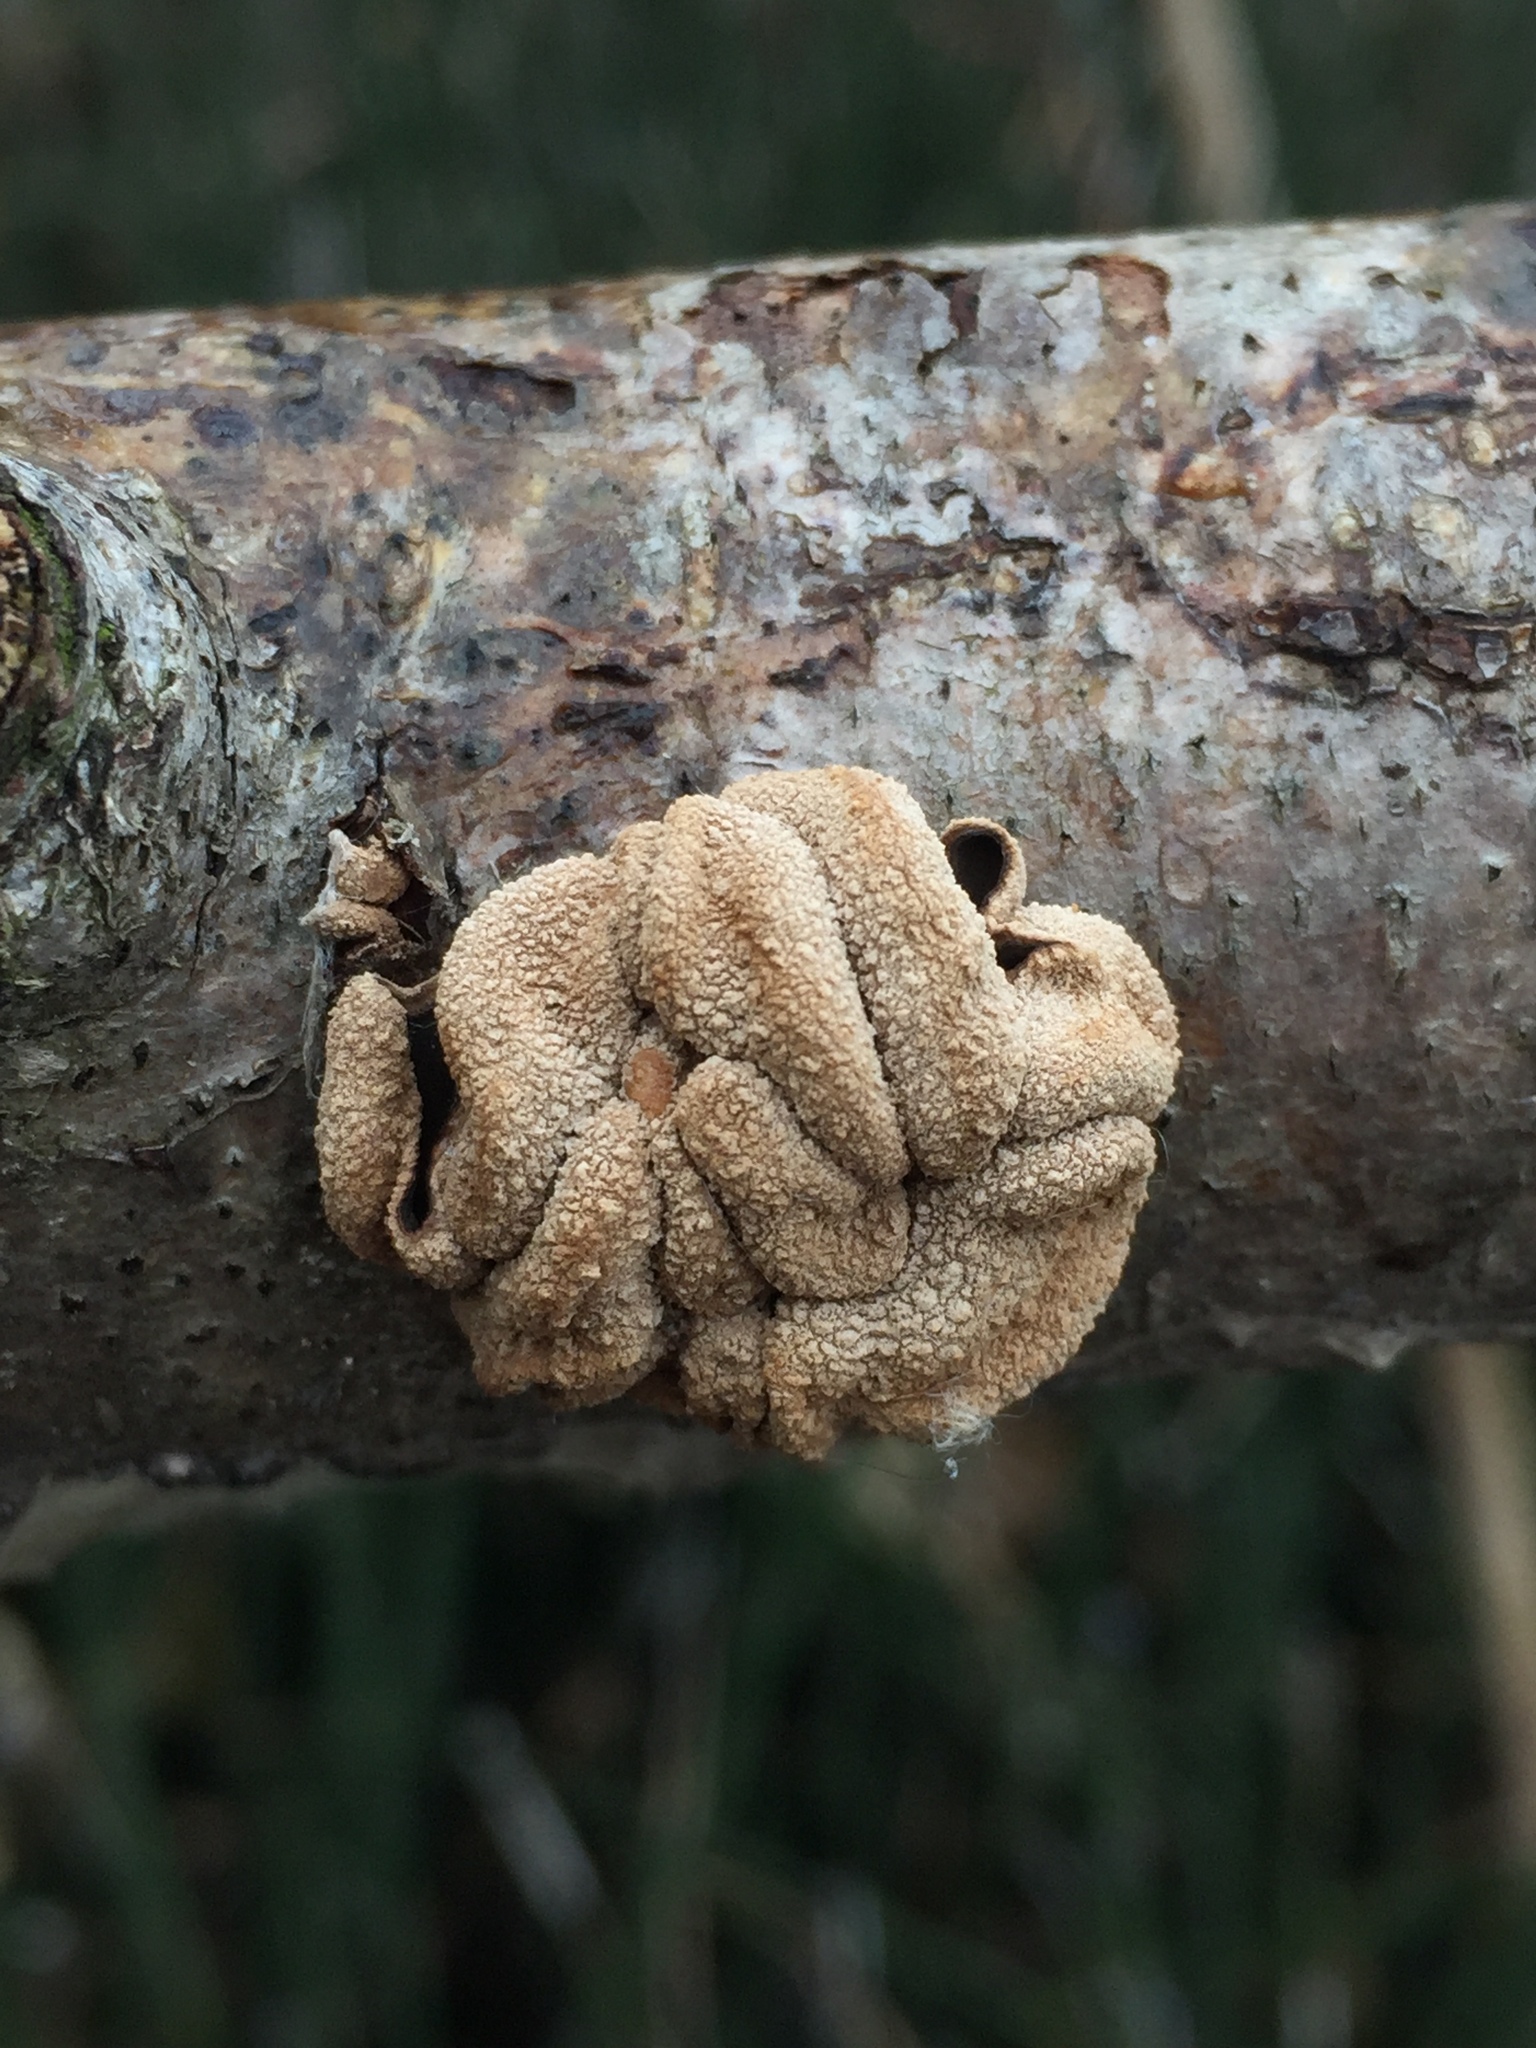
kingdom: Fungi
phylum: Ascomycota
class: Leotiomycetes
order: Helotiales
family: Cenangiaceae
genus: Encoelia
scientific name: Encoelia furfuracea
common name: Spring hazelcup
